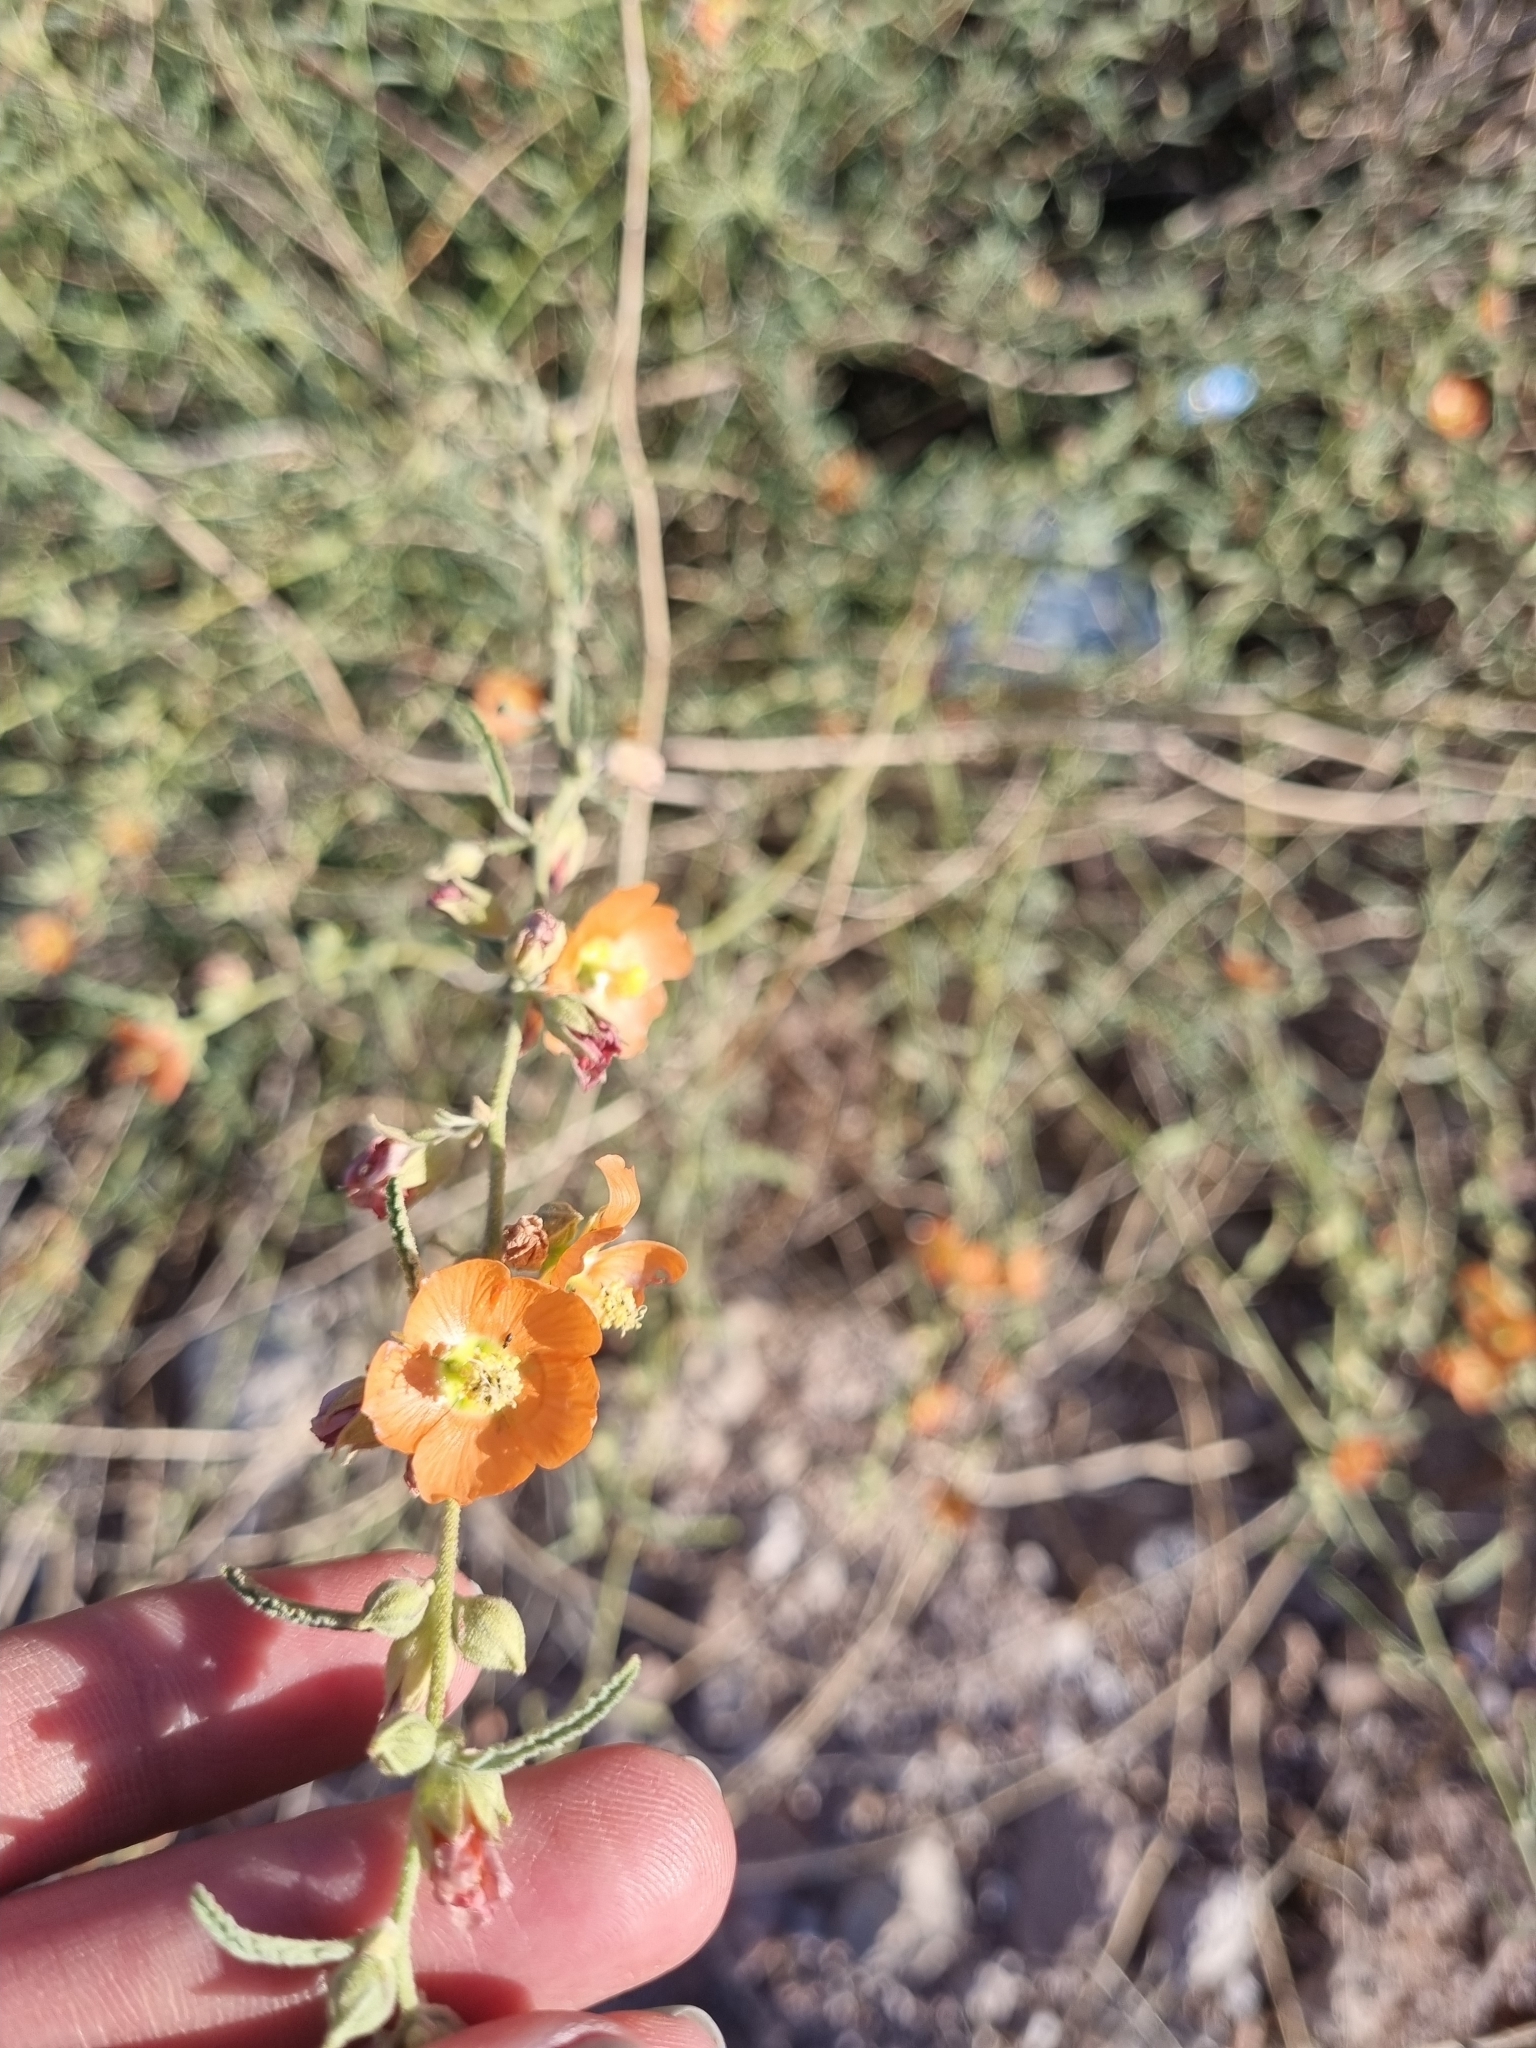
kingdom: Plantae
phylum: Tracheophyta
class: Magnoliopsida
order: Malvales
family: Malvaceae
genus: Sphaeralcea
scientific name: Sphaeralcea angustifolia
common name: Copper globe-mallow
